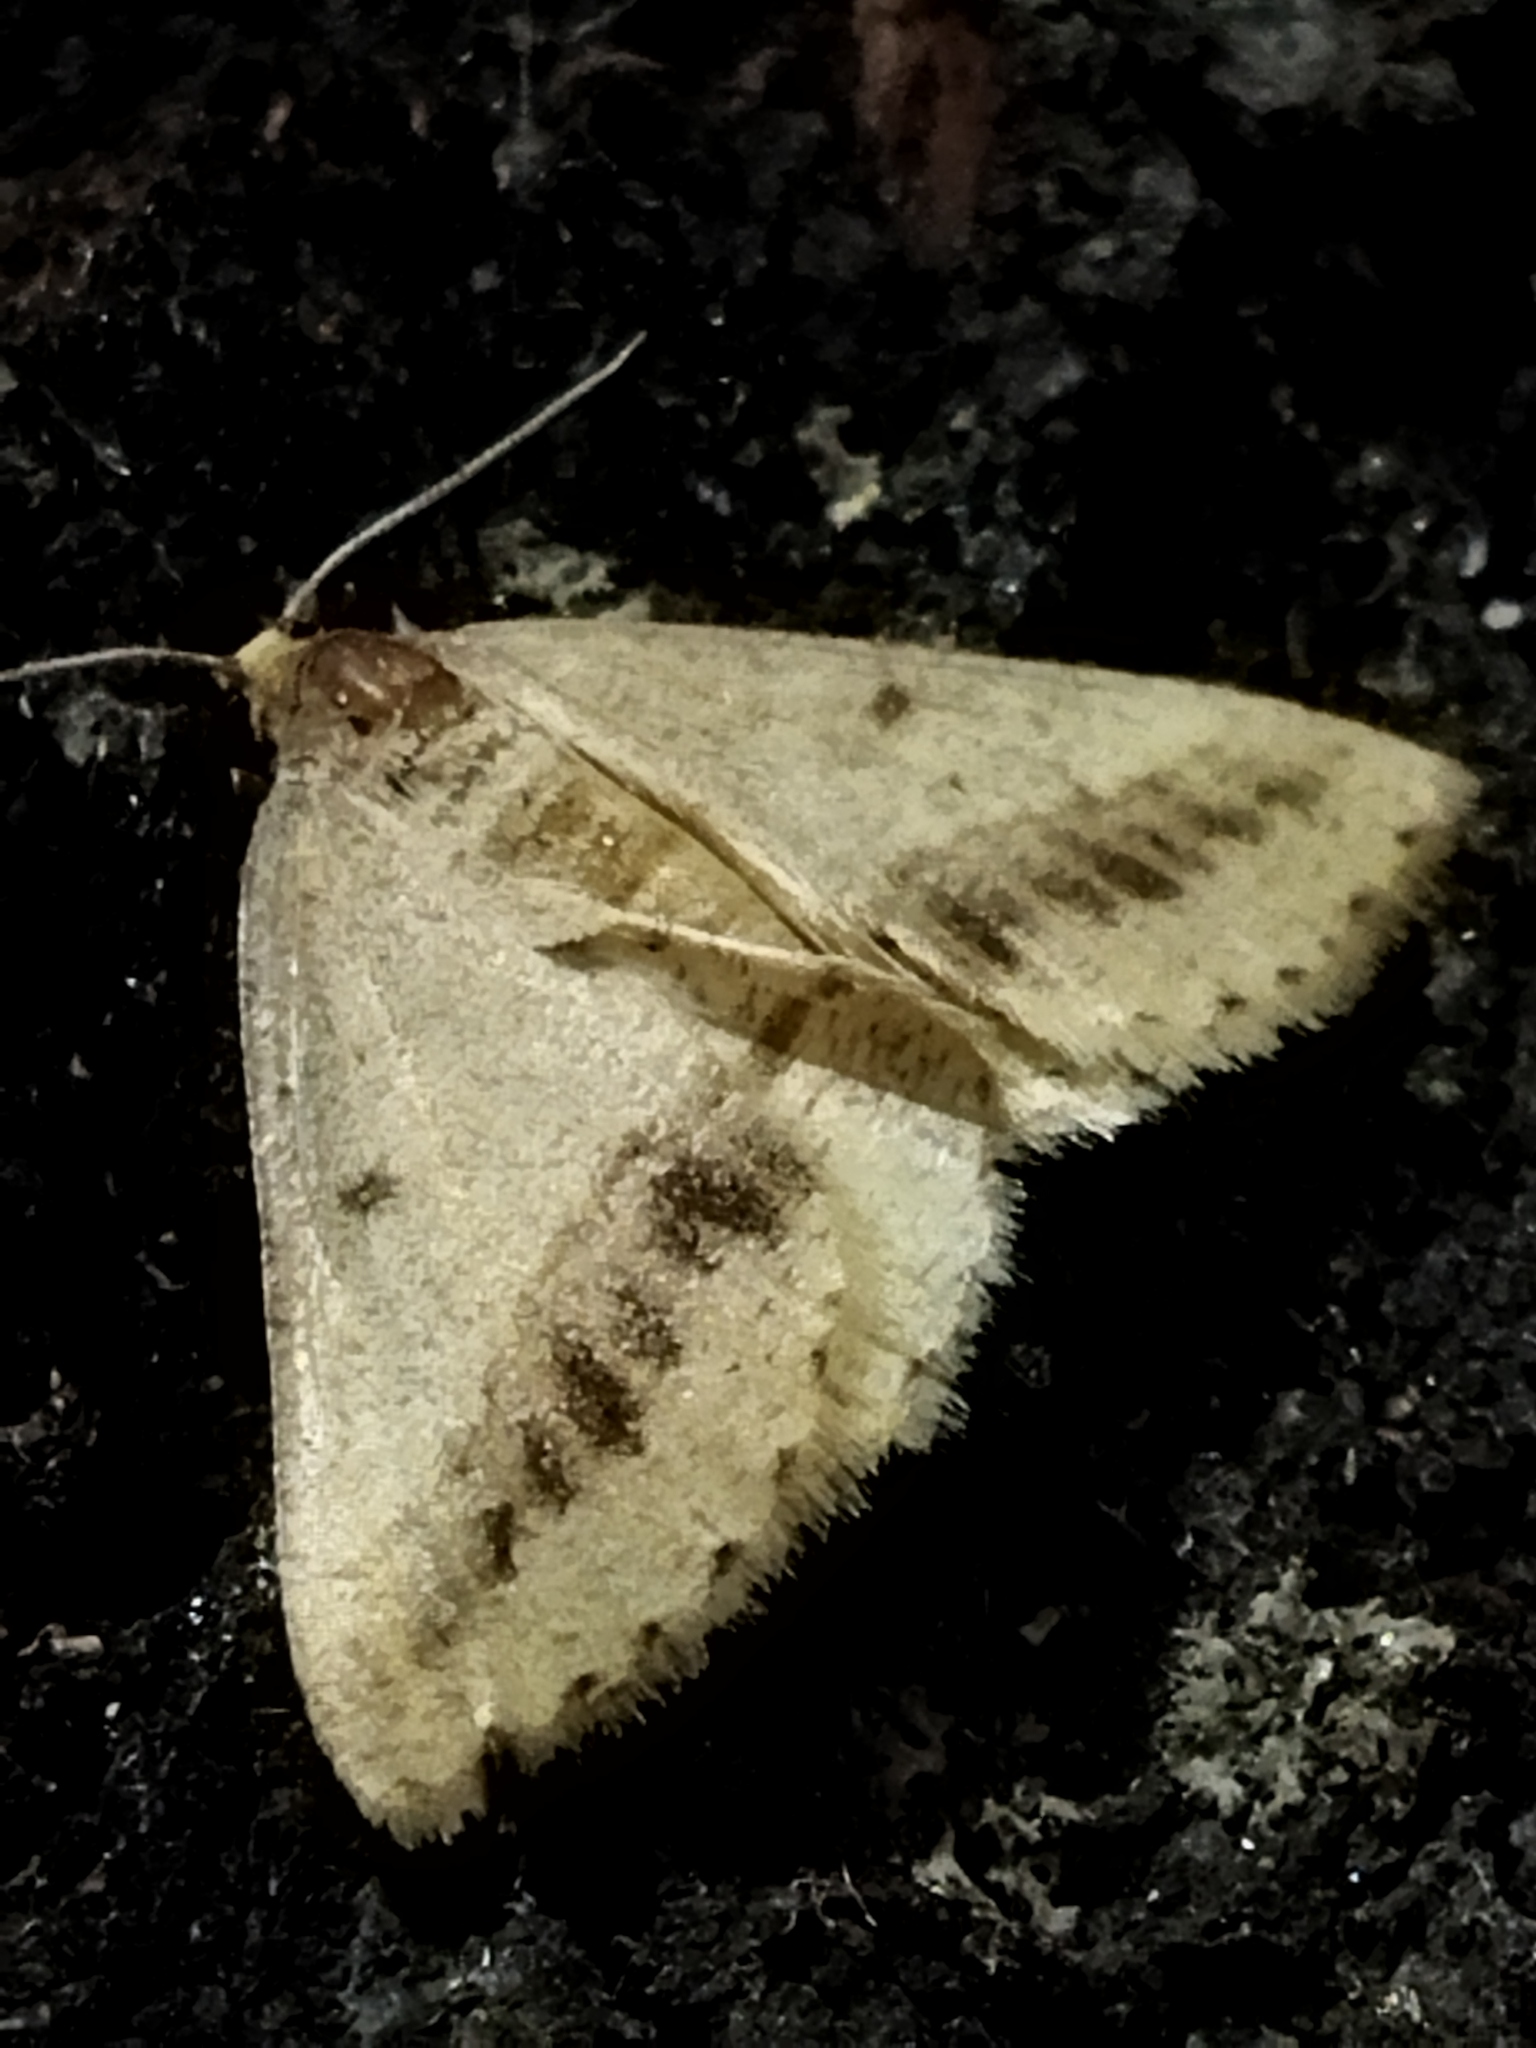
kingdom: Animalia
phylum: Arthropoda
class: Insecta
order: Lepidoptera
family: Geometridae
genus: Tephrina
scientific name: Tephrina arenacearia
